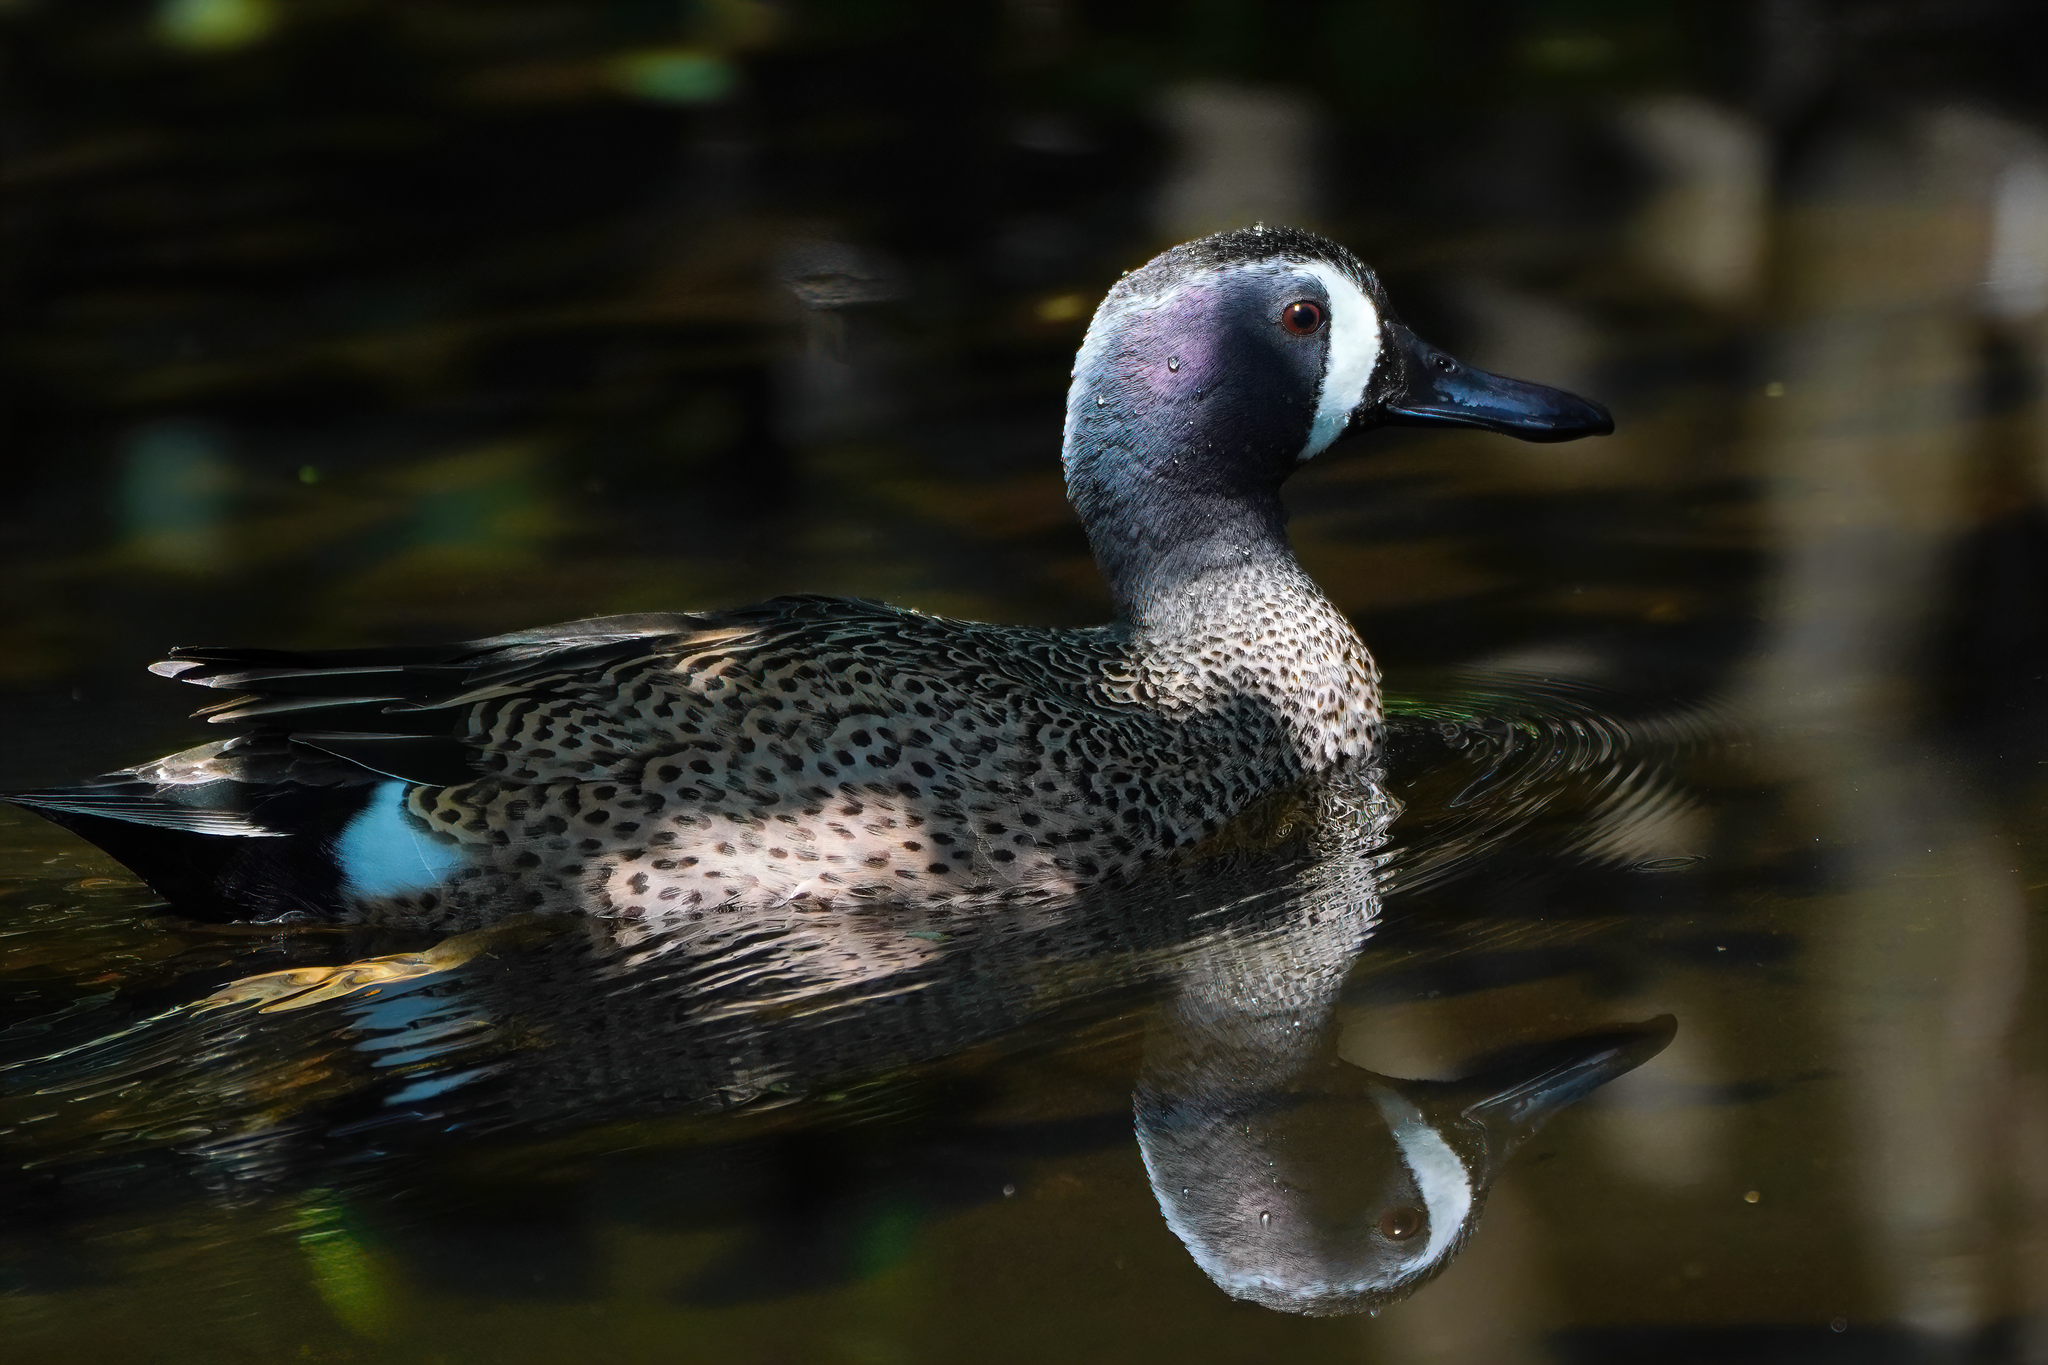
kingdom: Animalia
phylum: Chordata
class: Aves
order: Anseriformes
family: Anatidae
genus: Spatula
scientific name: Spatula discors
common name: Blue-winged teal
